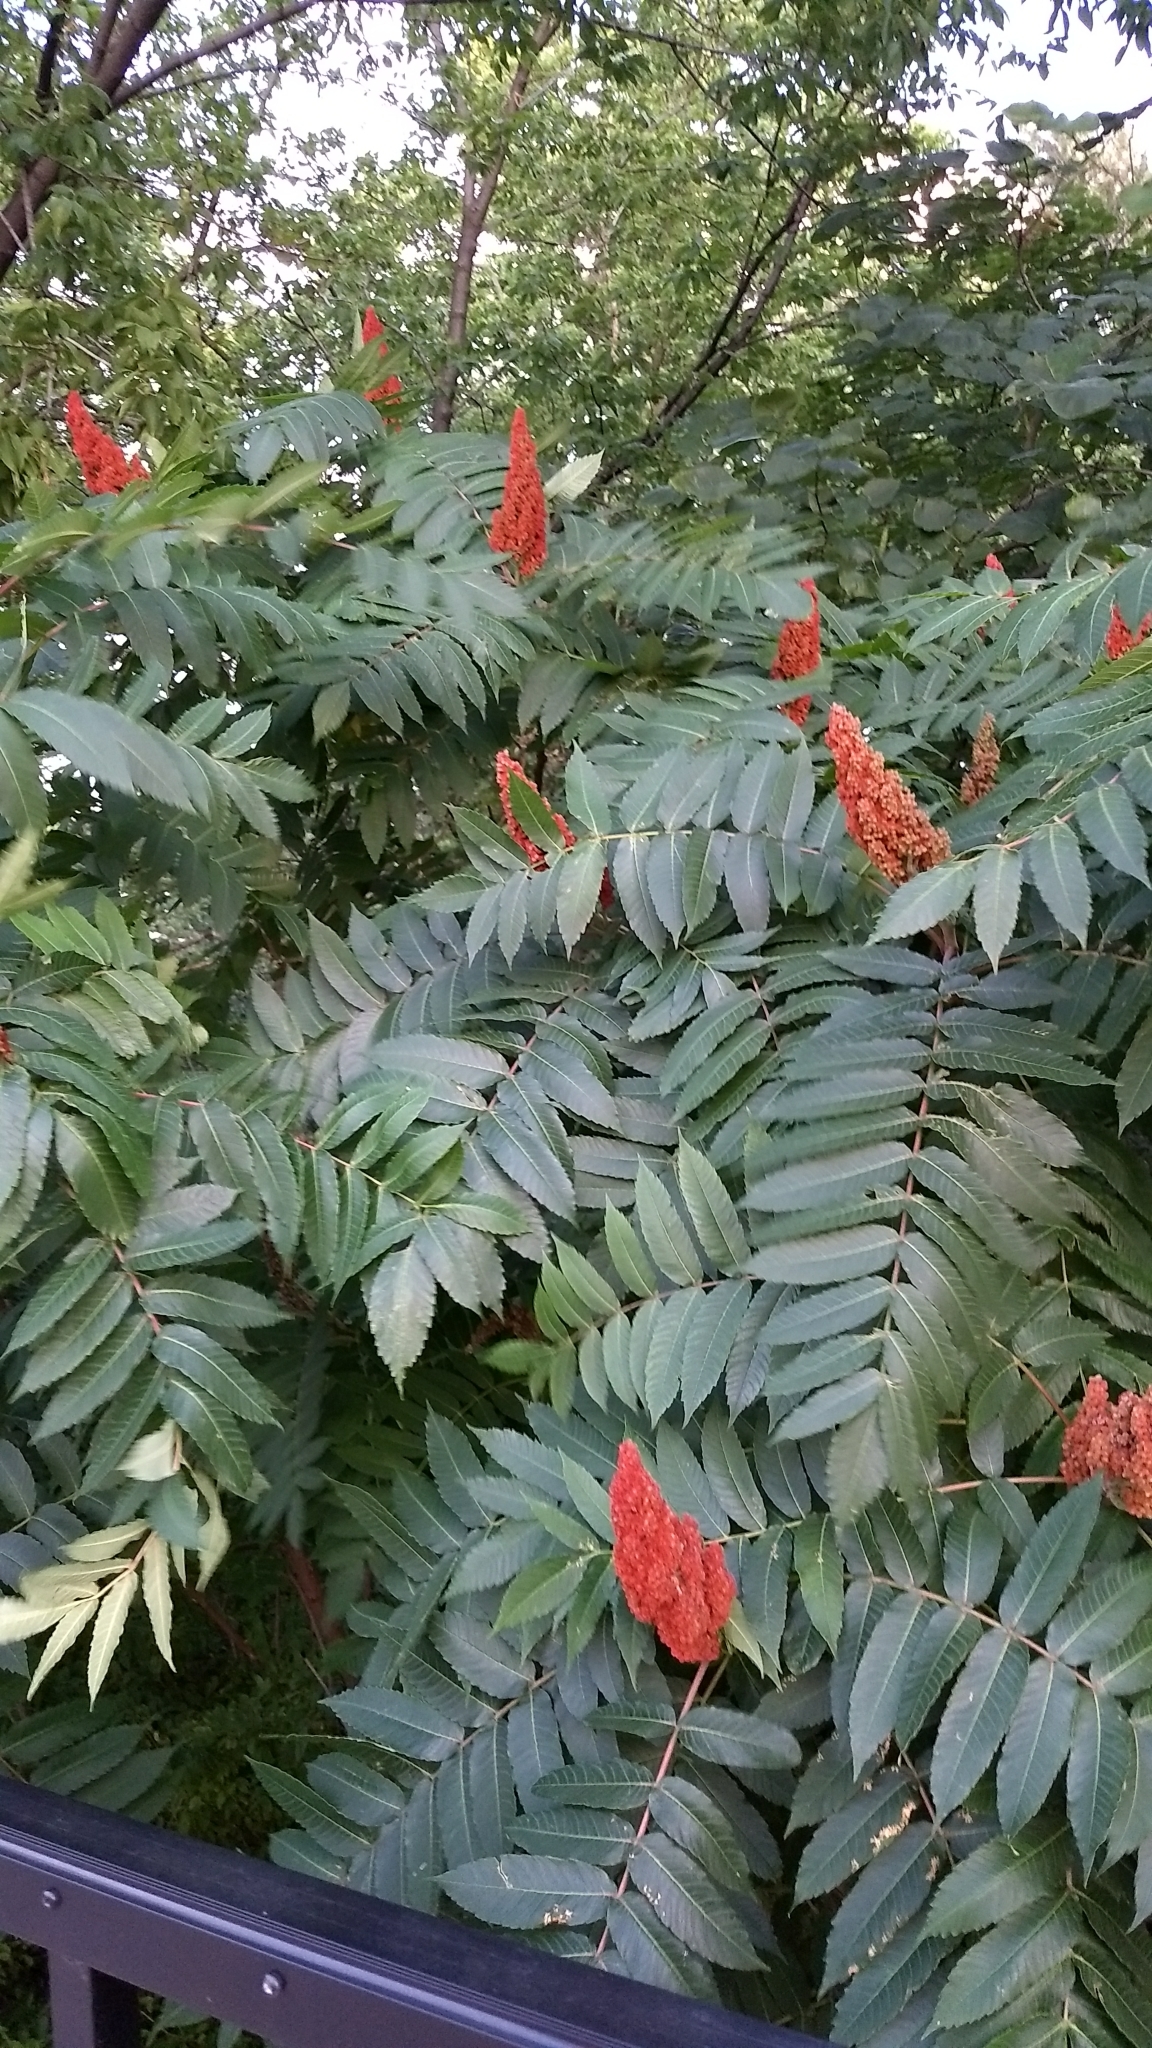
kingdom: Plantae
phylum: Tracheophyta
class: Magnoliopsida
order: Sapindales
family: Anacardiaceae
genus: Rhus
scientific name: Rhus typhina
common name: Staghorn sumac
